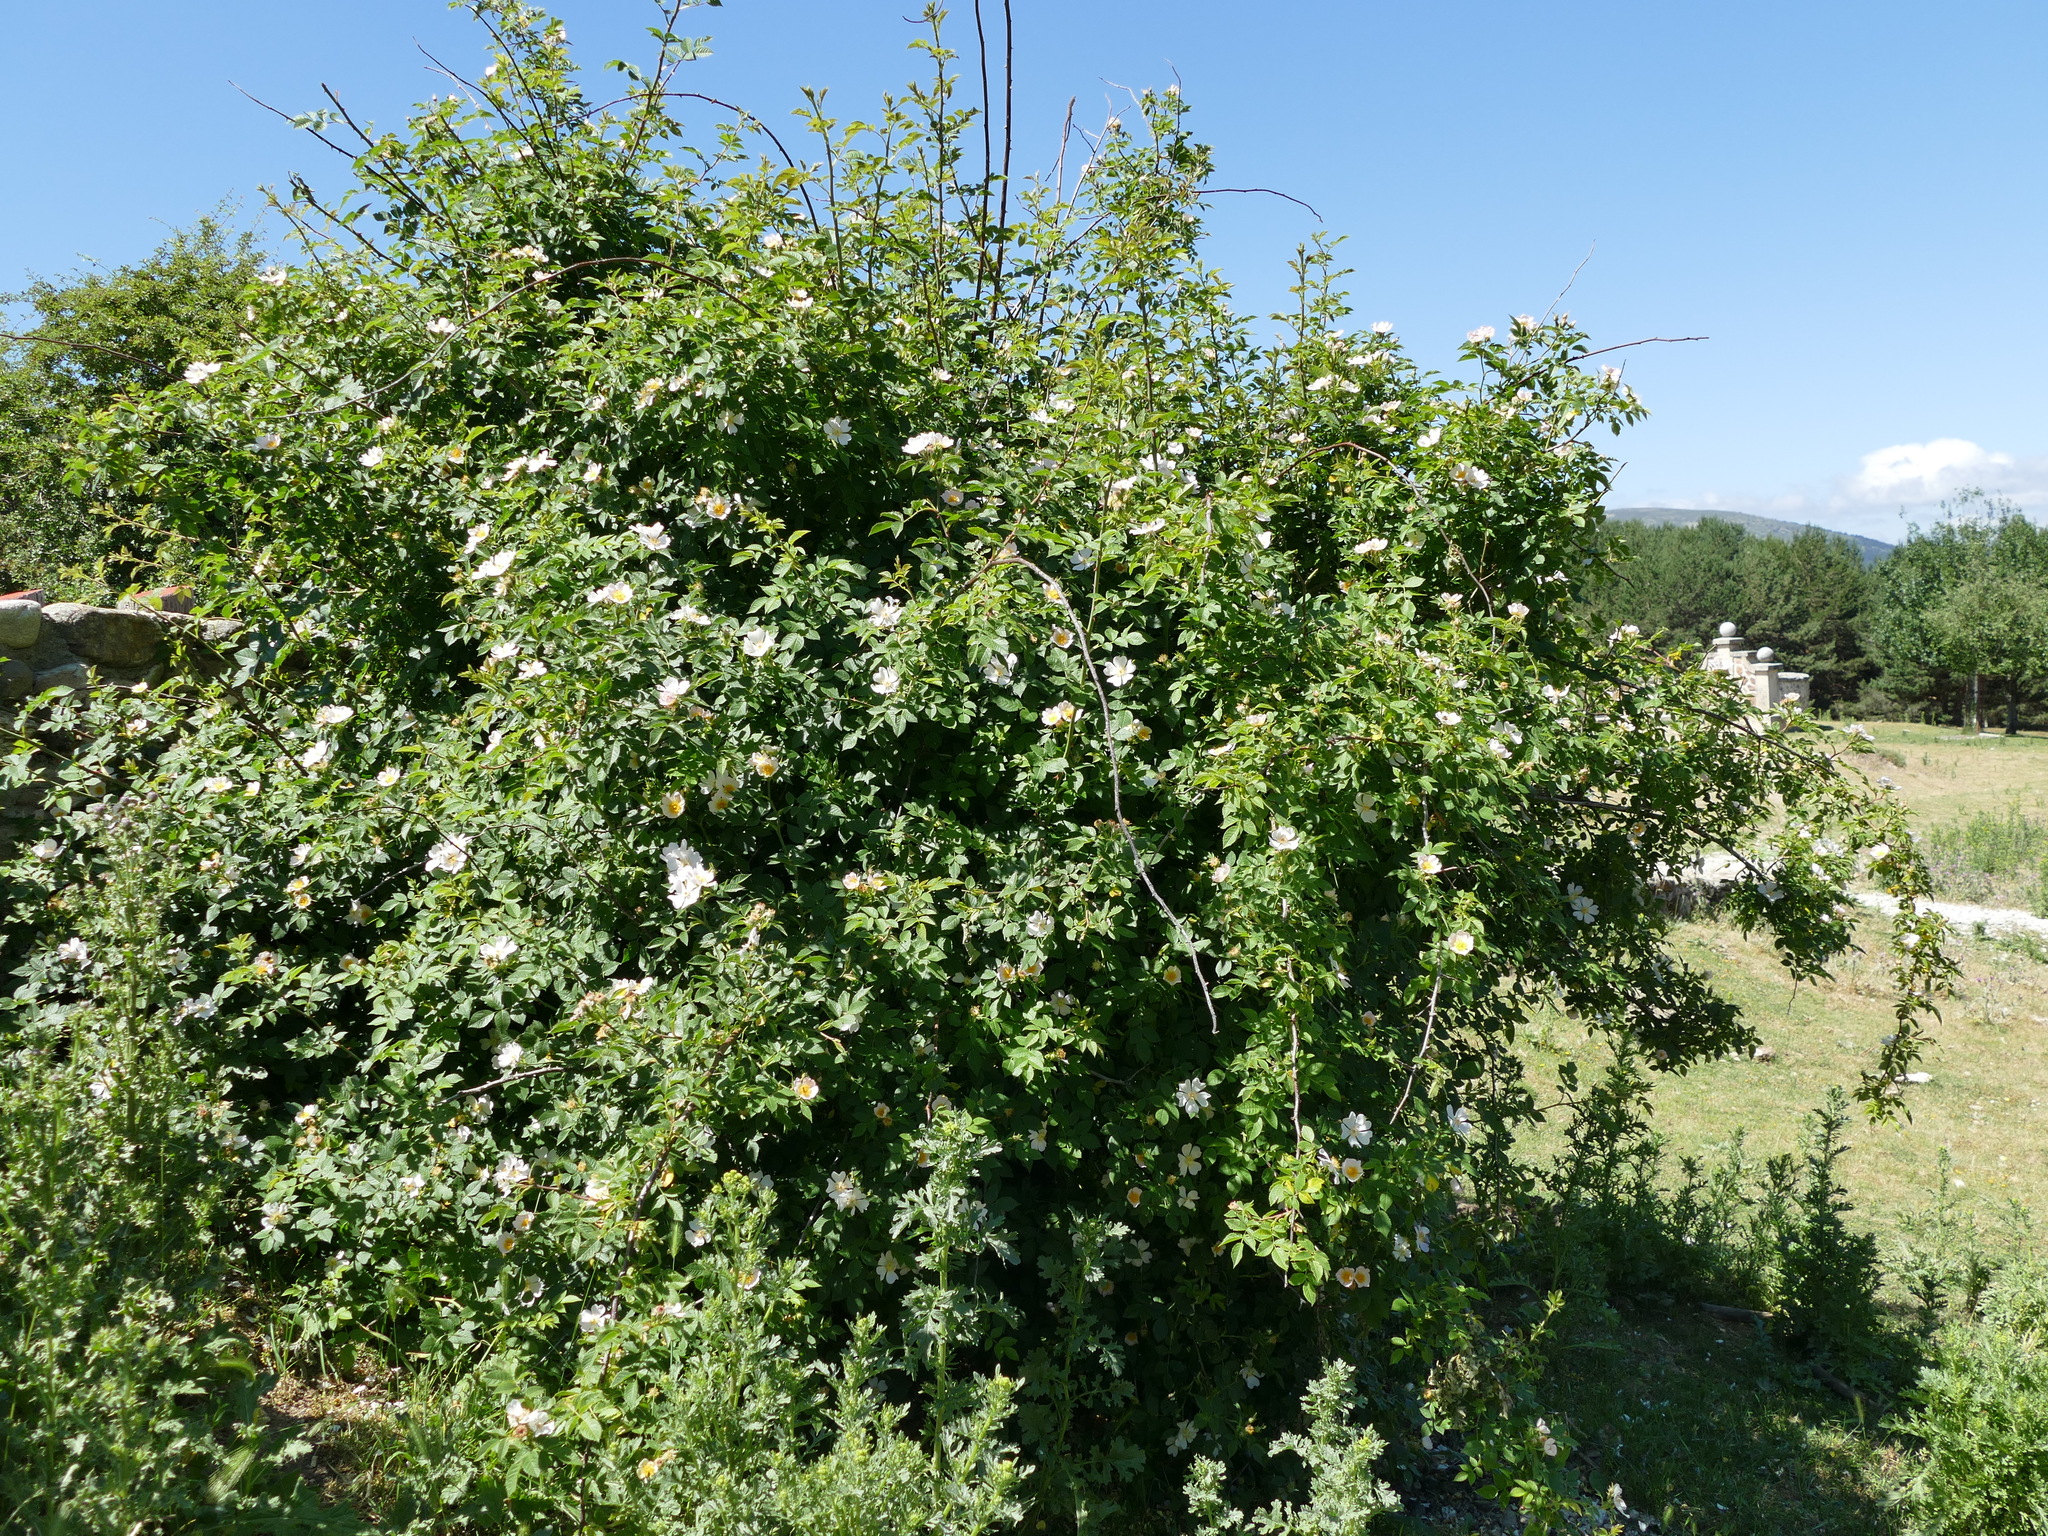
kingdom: Plantae
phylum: Tracheophyta
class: Magnoliopsida
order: Rosales
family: Rosaceae
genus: Rosa
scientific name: Rosa canina
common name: Dog rose
